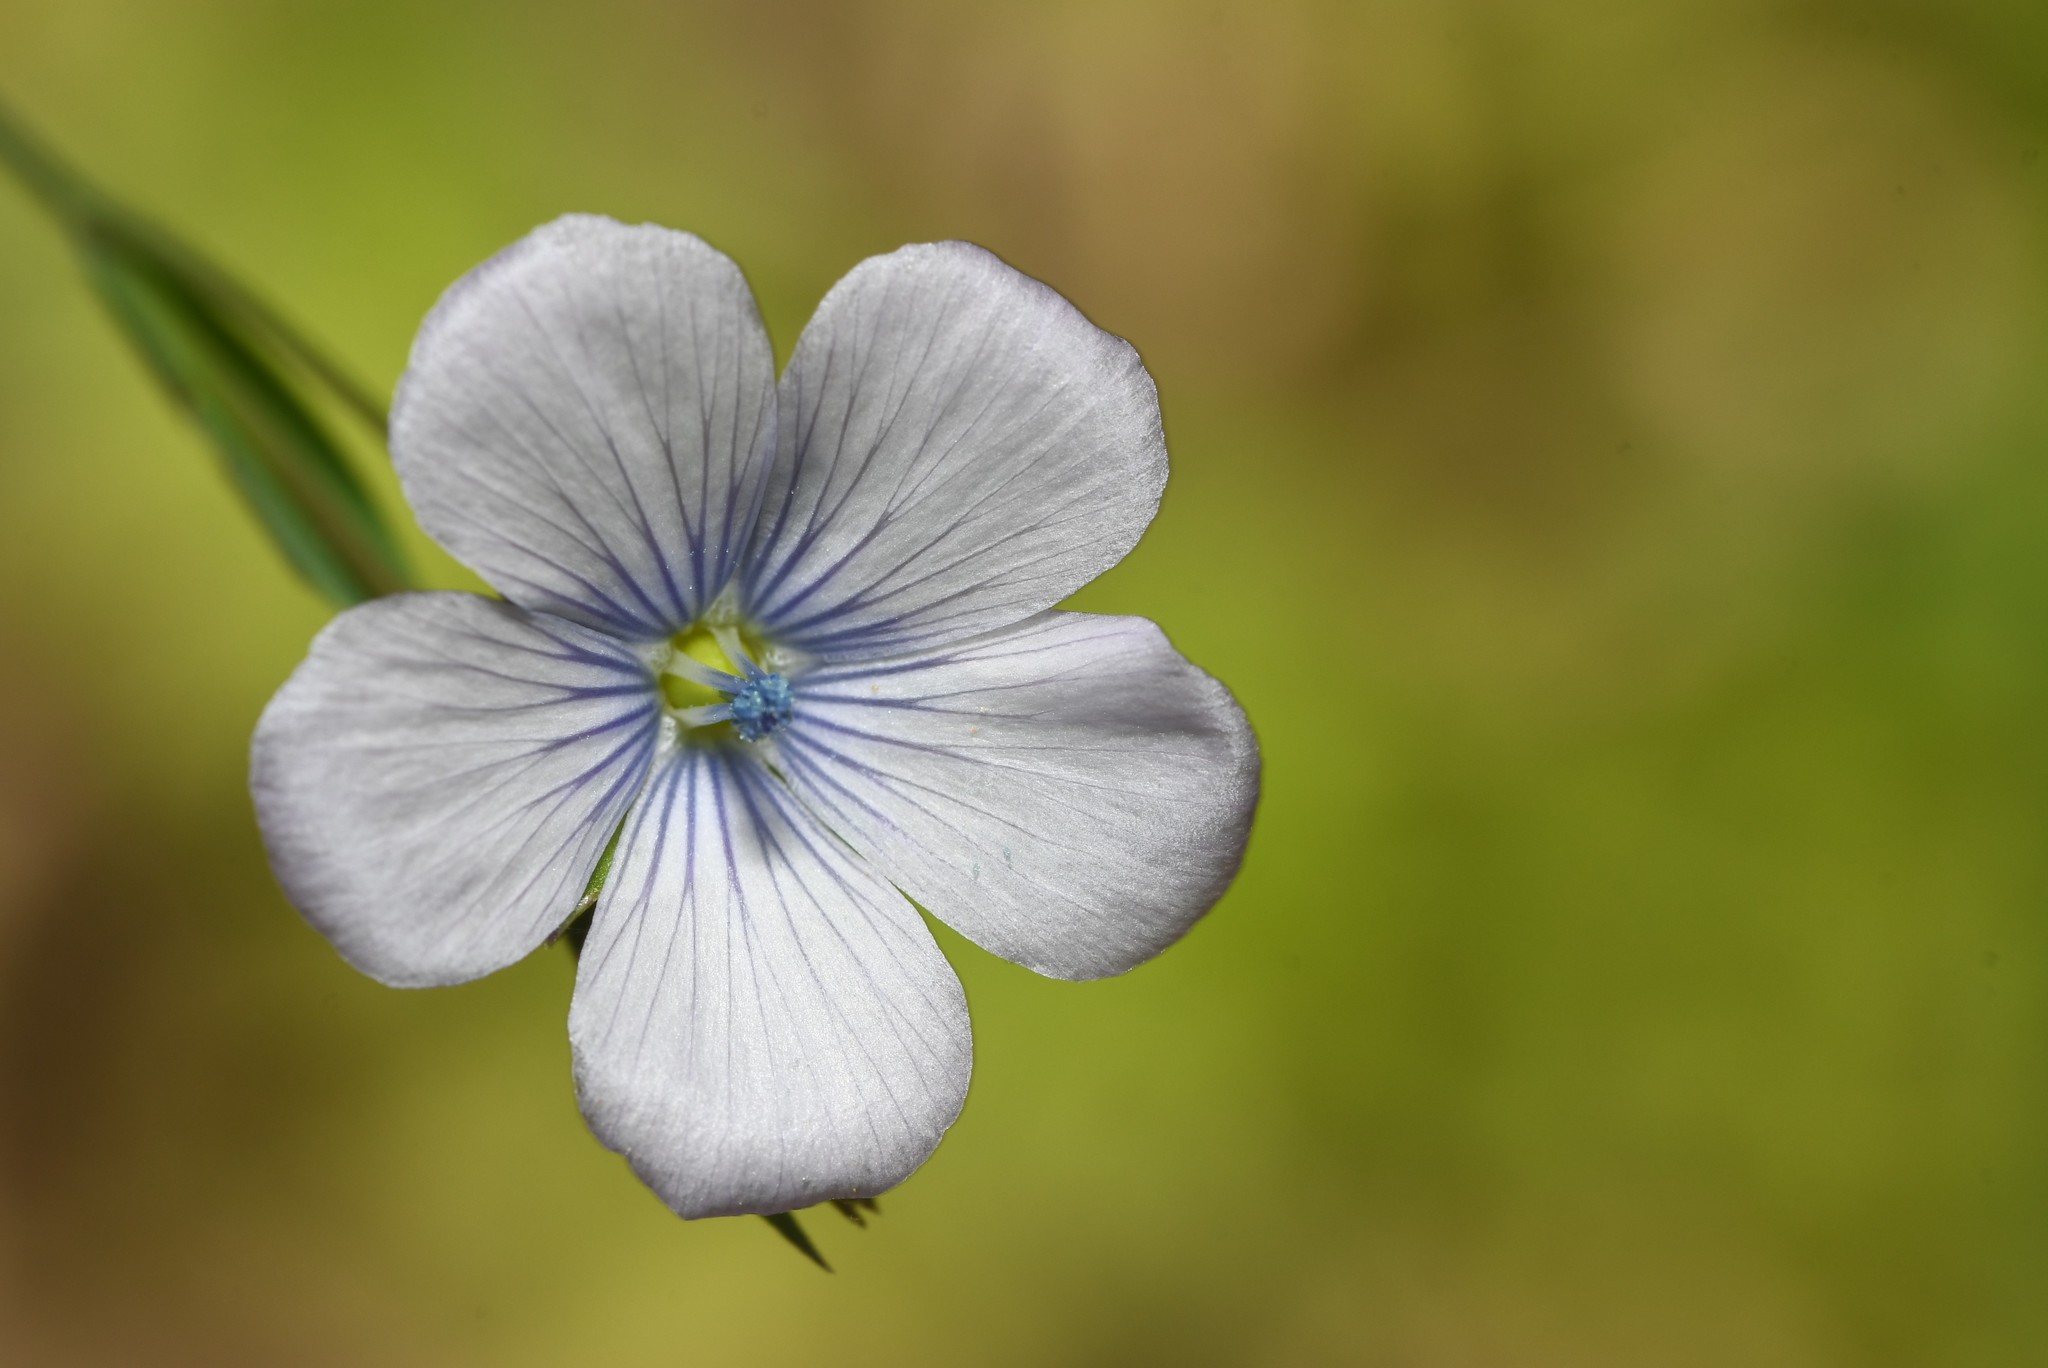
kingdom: Plantae
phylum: Tracheophyta
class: Magnoliopsida
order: Malpighiales
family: Linaceae
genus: Linum
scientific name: Linum bienne
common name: Pale flax
